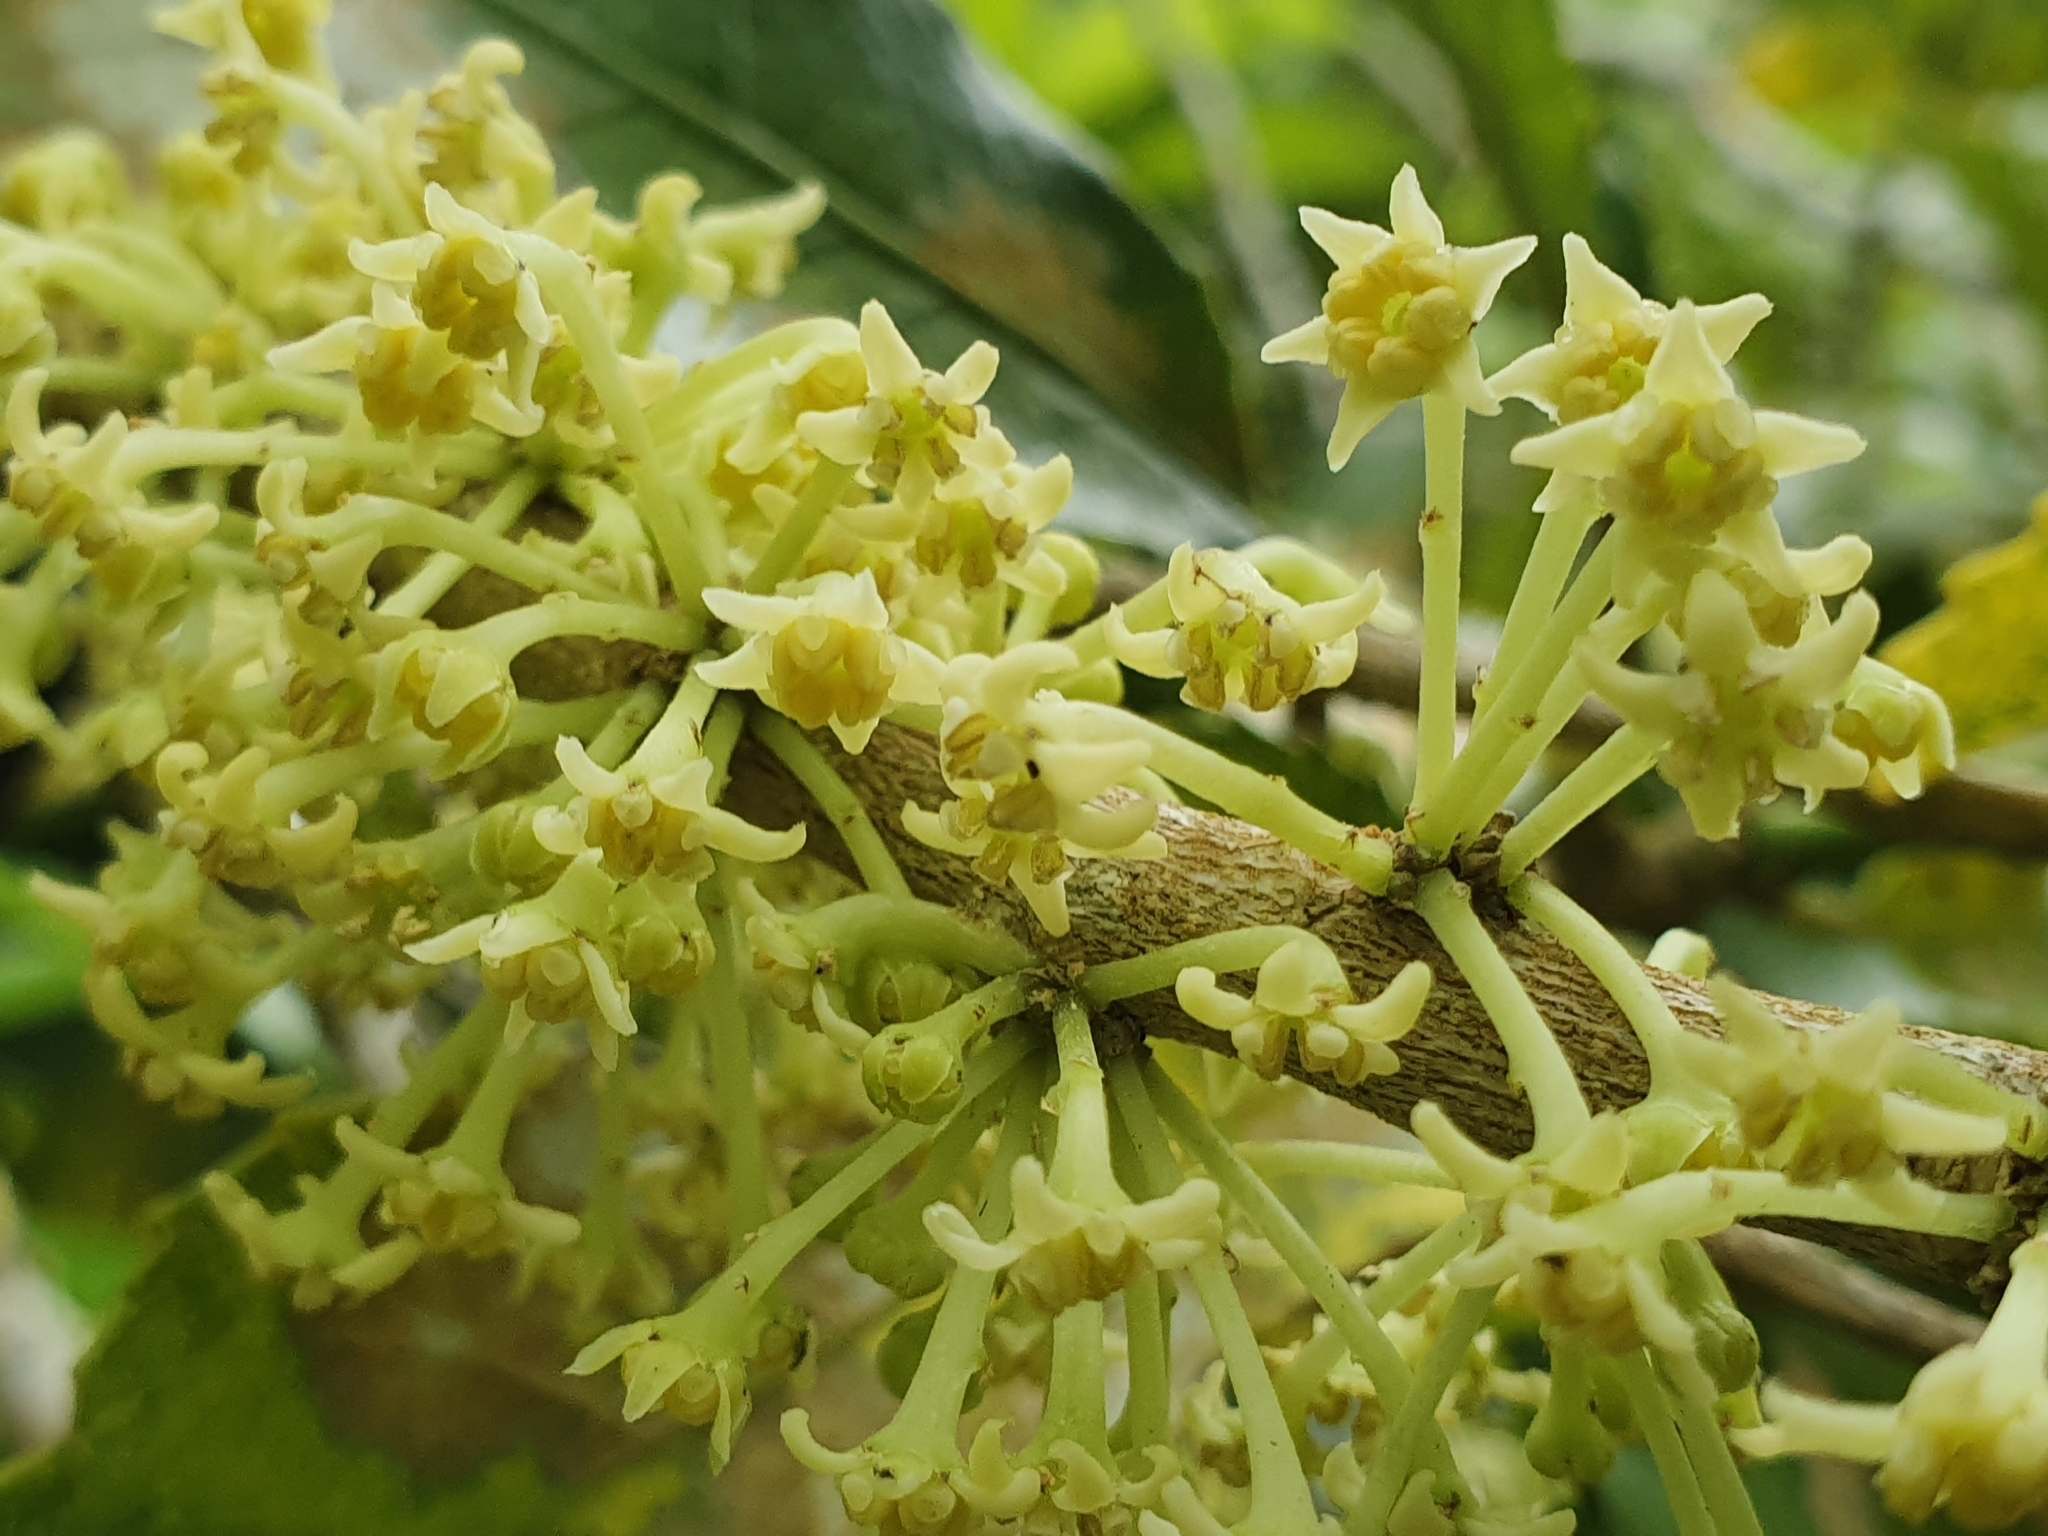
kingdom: Plantae
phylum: Tracheophyta
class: Magnoliopsida
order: Malpighiales
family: Violaceae
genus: Melicytus
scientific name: Melicytus ramiflorus
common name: Mahoe
